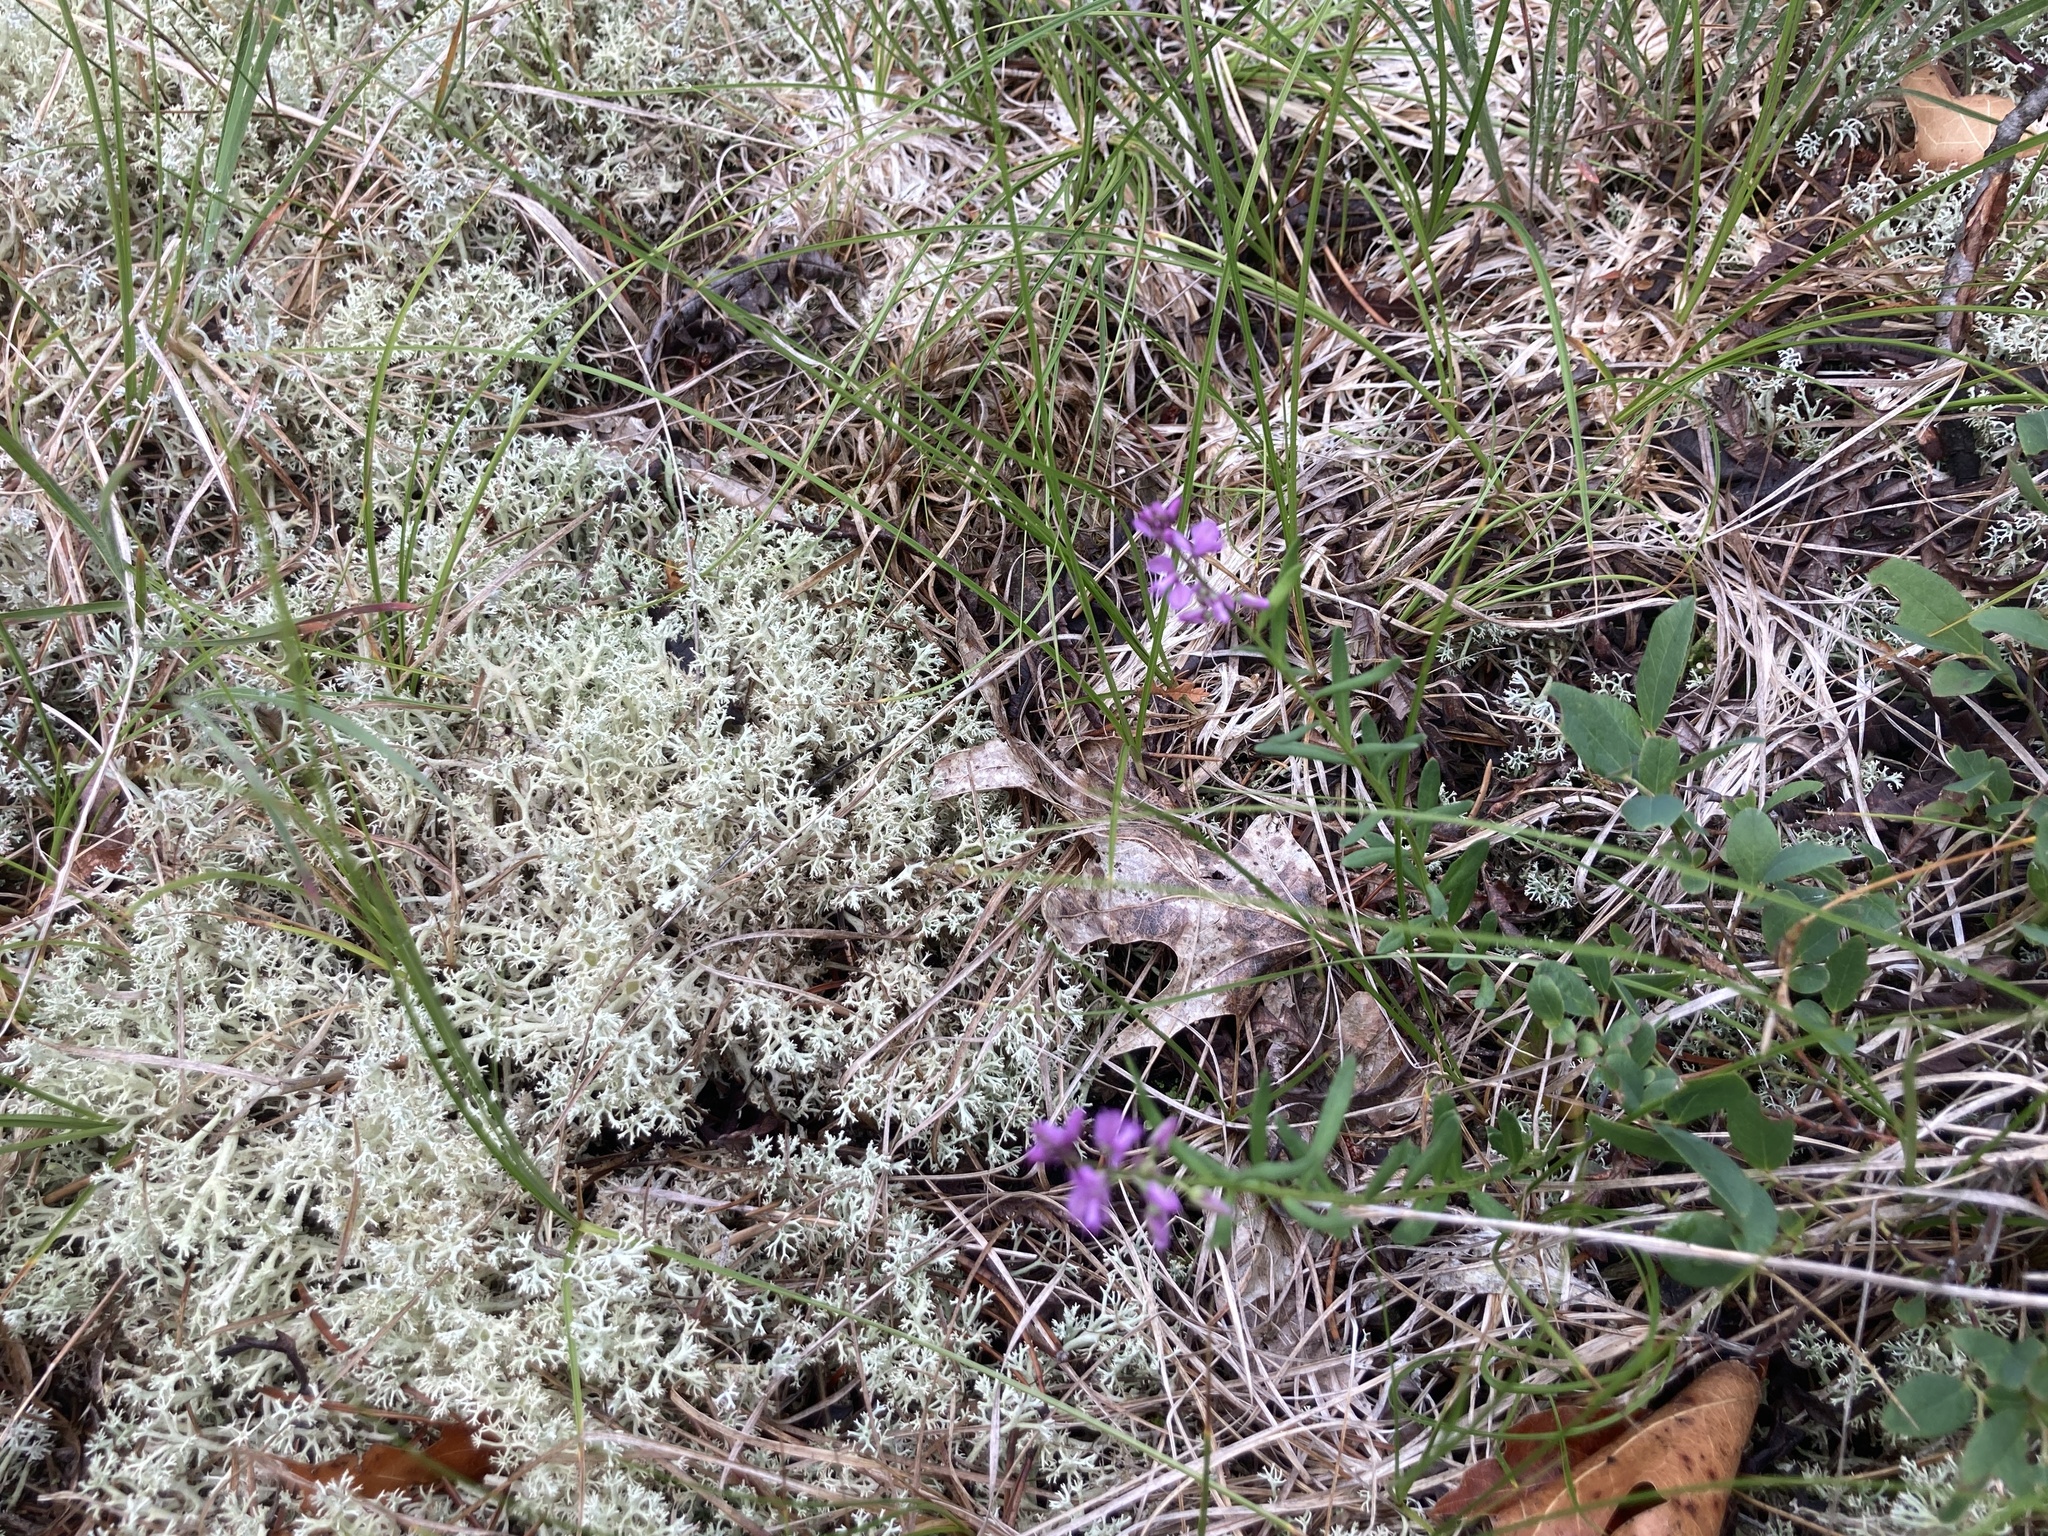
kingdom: Plantae
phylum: Tracheophyta
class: Magnoliopsida
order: Fabales
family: Polygalaceae
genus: Polygala
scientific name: Polygala polygama
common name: Bitter milkwort
